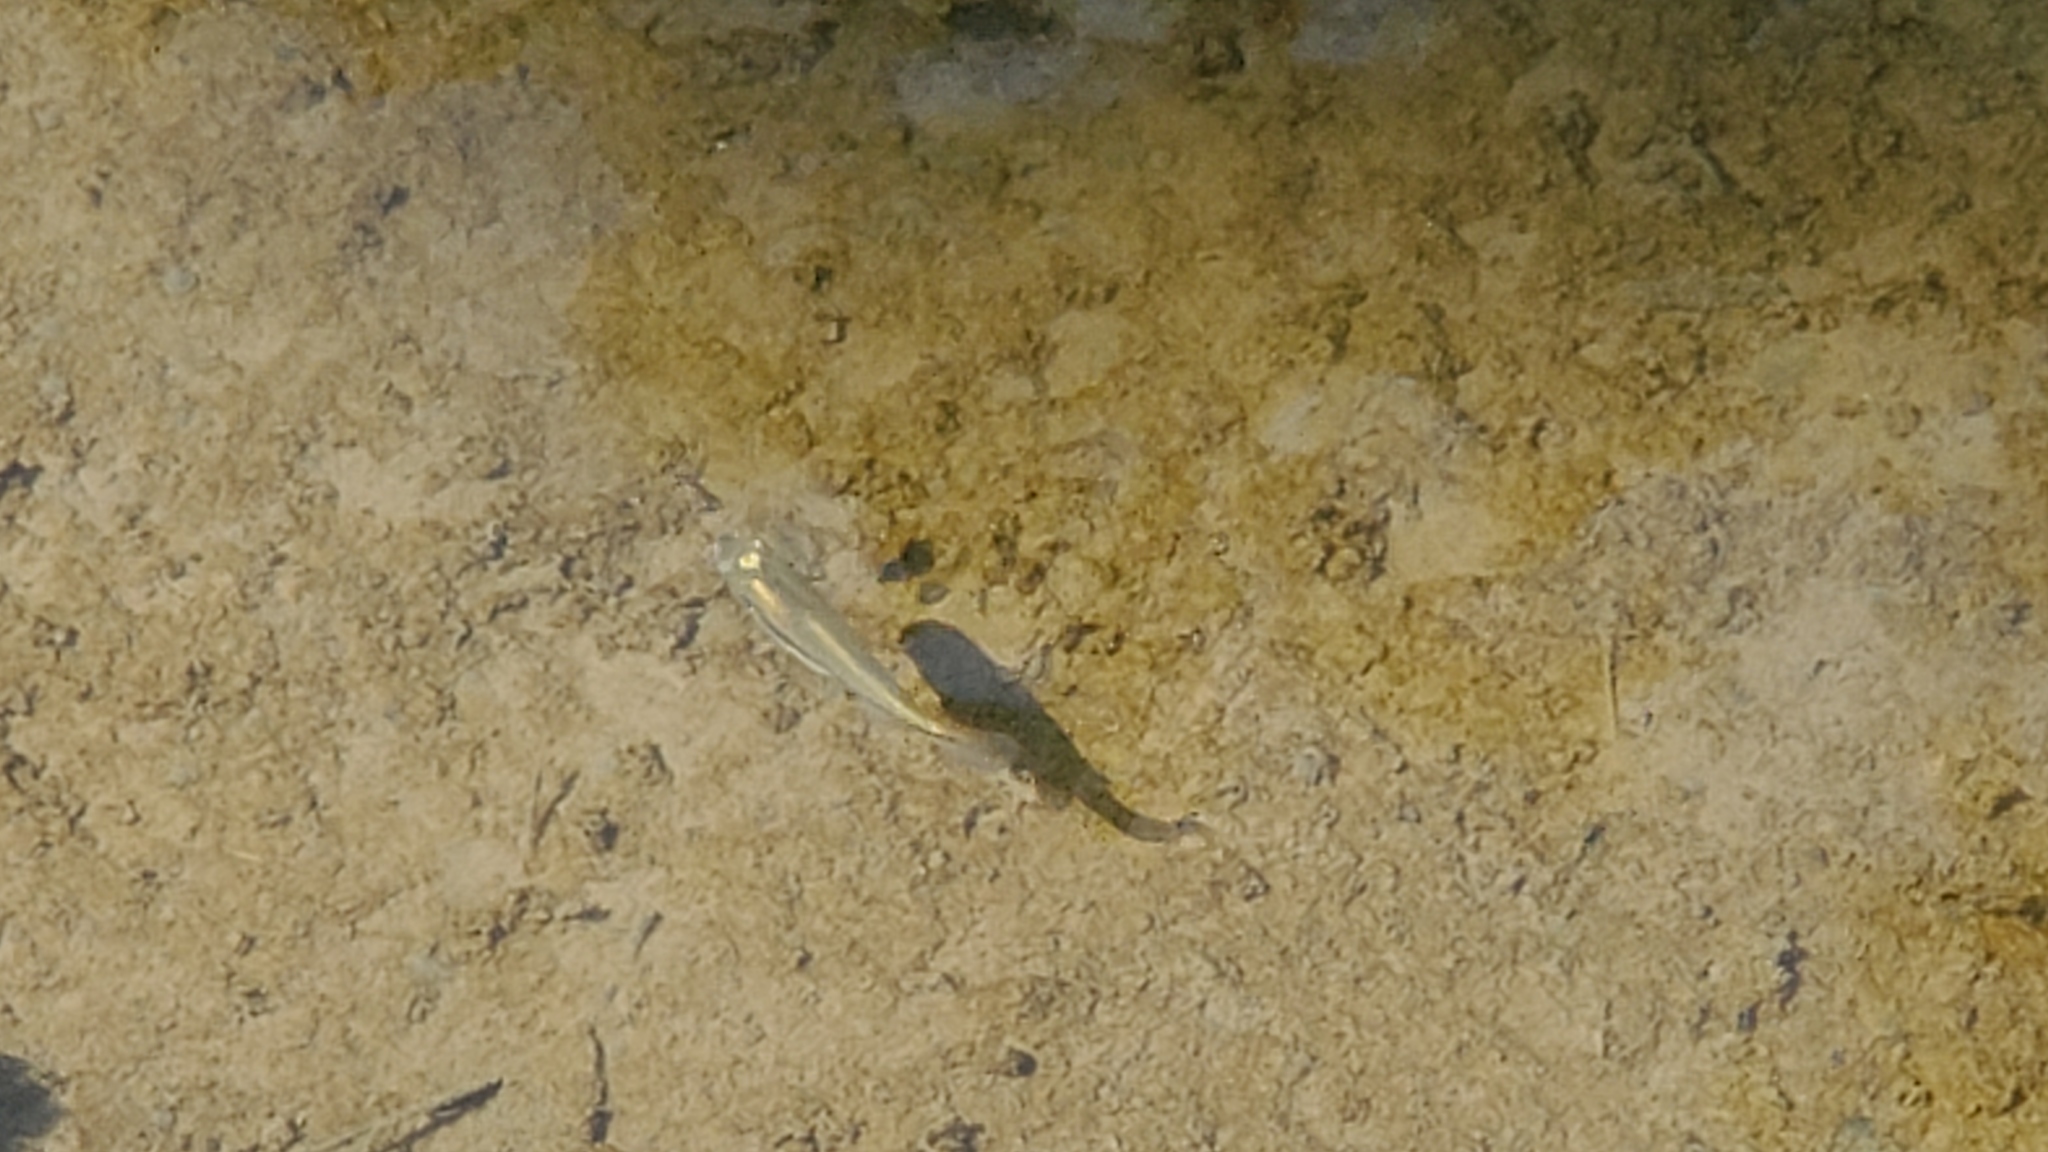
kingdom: Animalia
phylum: Chordata
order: Cyprinodontiformes
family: Fundulidae
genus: Fundulus
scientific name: Fundulus notatus
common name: Blackstripe topminnow
